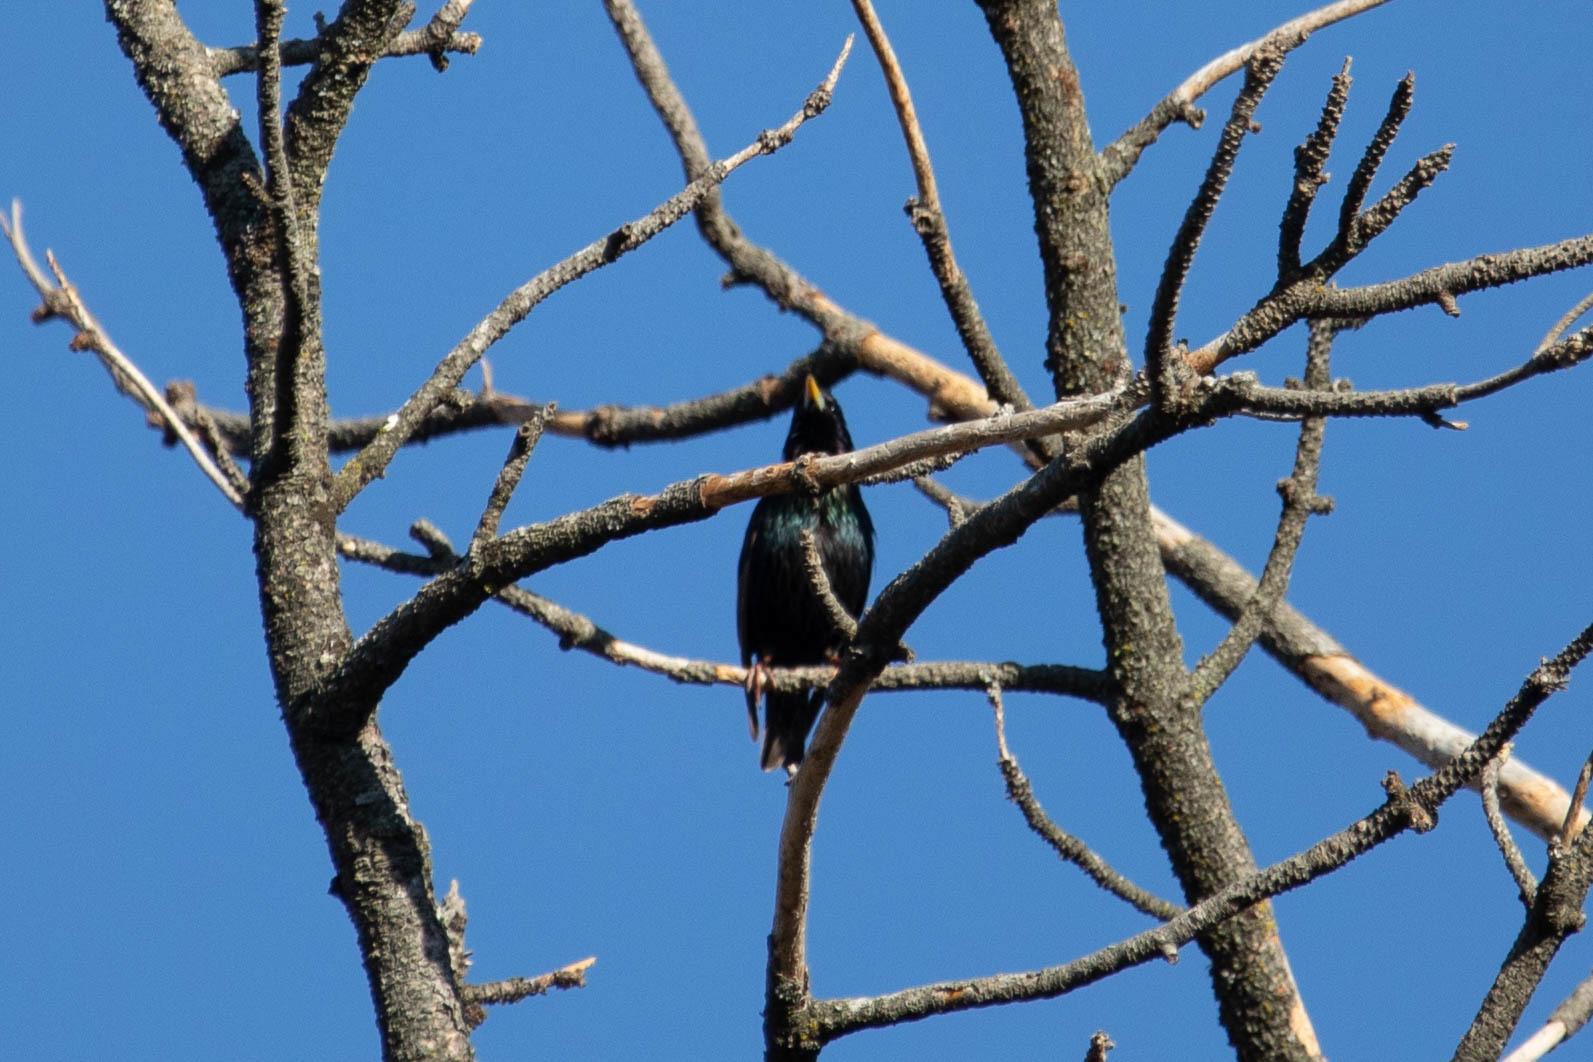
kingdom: Animalia
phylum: Chordata
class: Aves
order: Passeriformes
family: Sturnidae
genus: Sturnus
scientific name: Sturnus vulgaris
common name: Common starling
